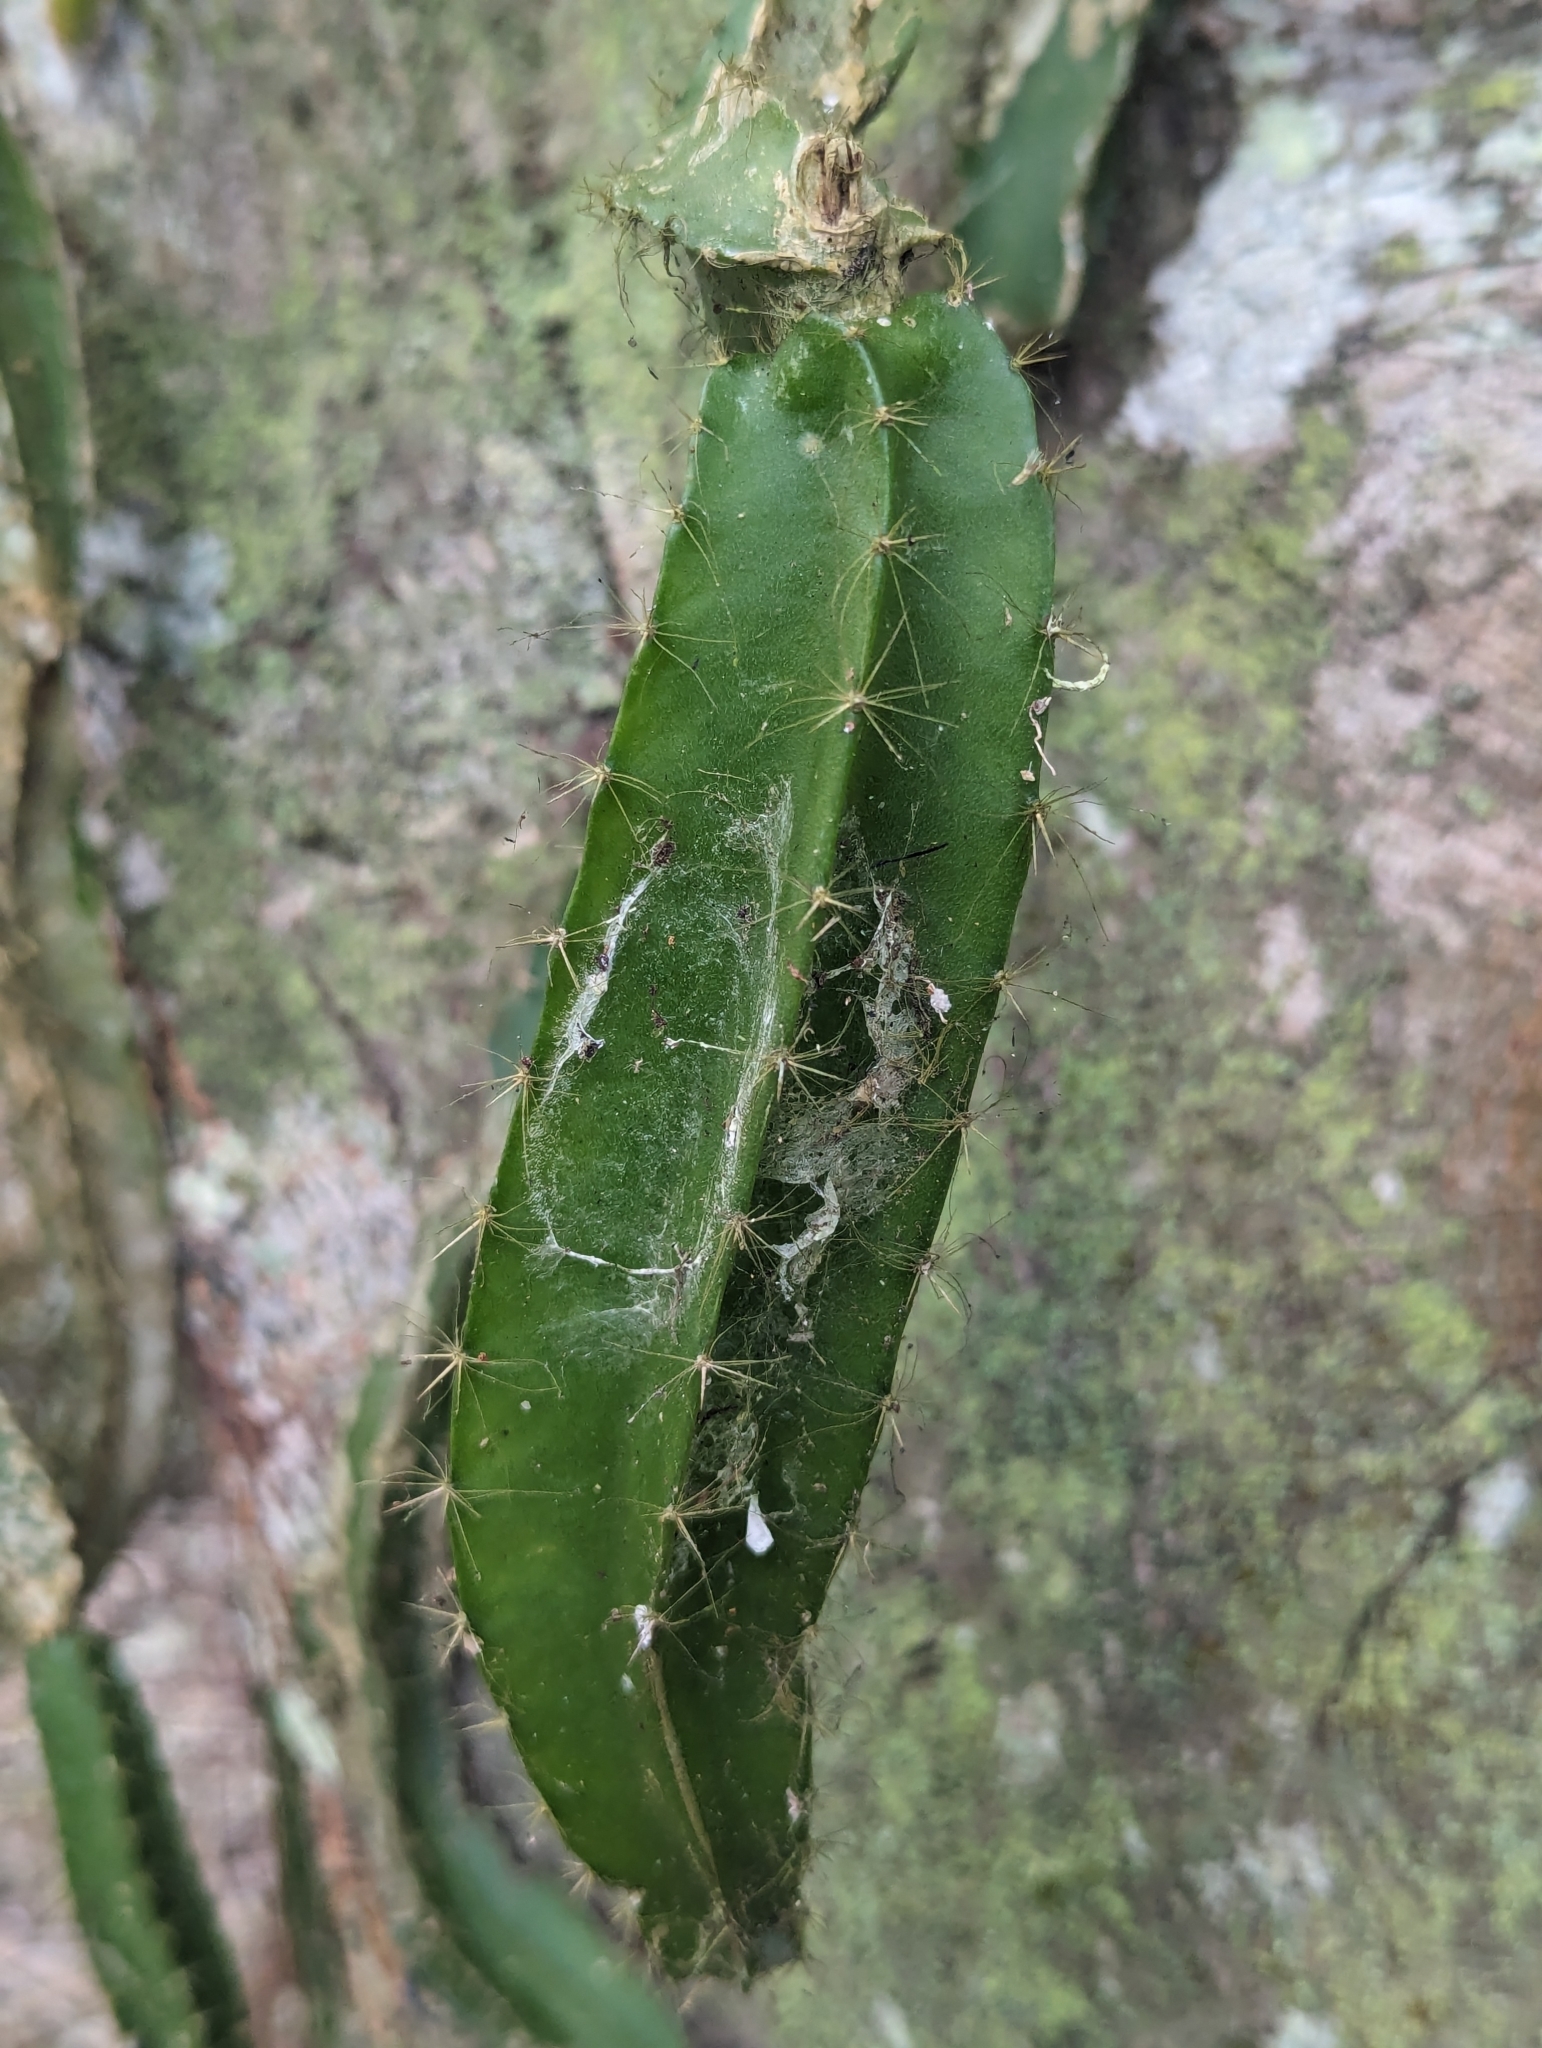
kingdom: Plantae
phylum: Tracheophyta
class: Magnoliopsida
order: Caryophyllales
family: Cactaceae
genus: Deamia
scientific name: Deamia testudo
